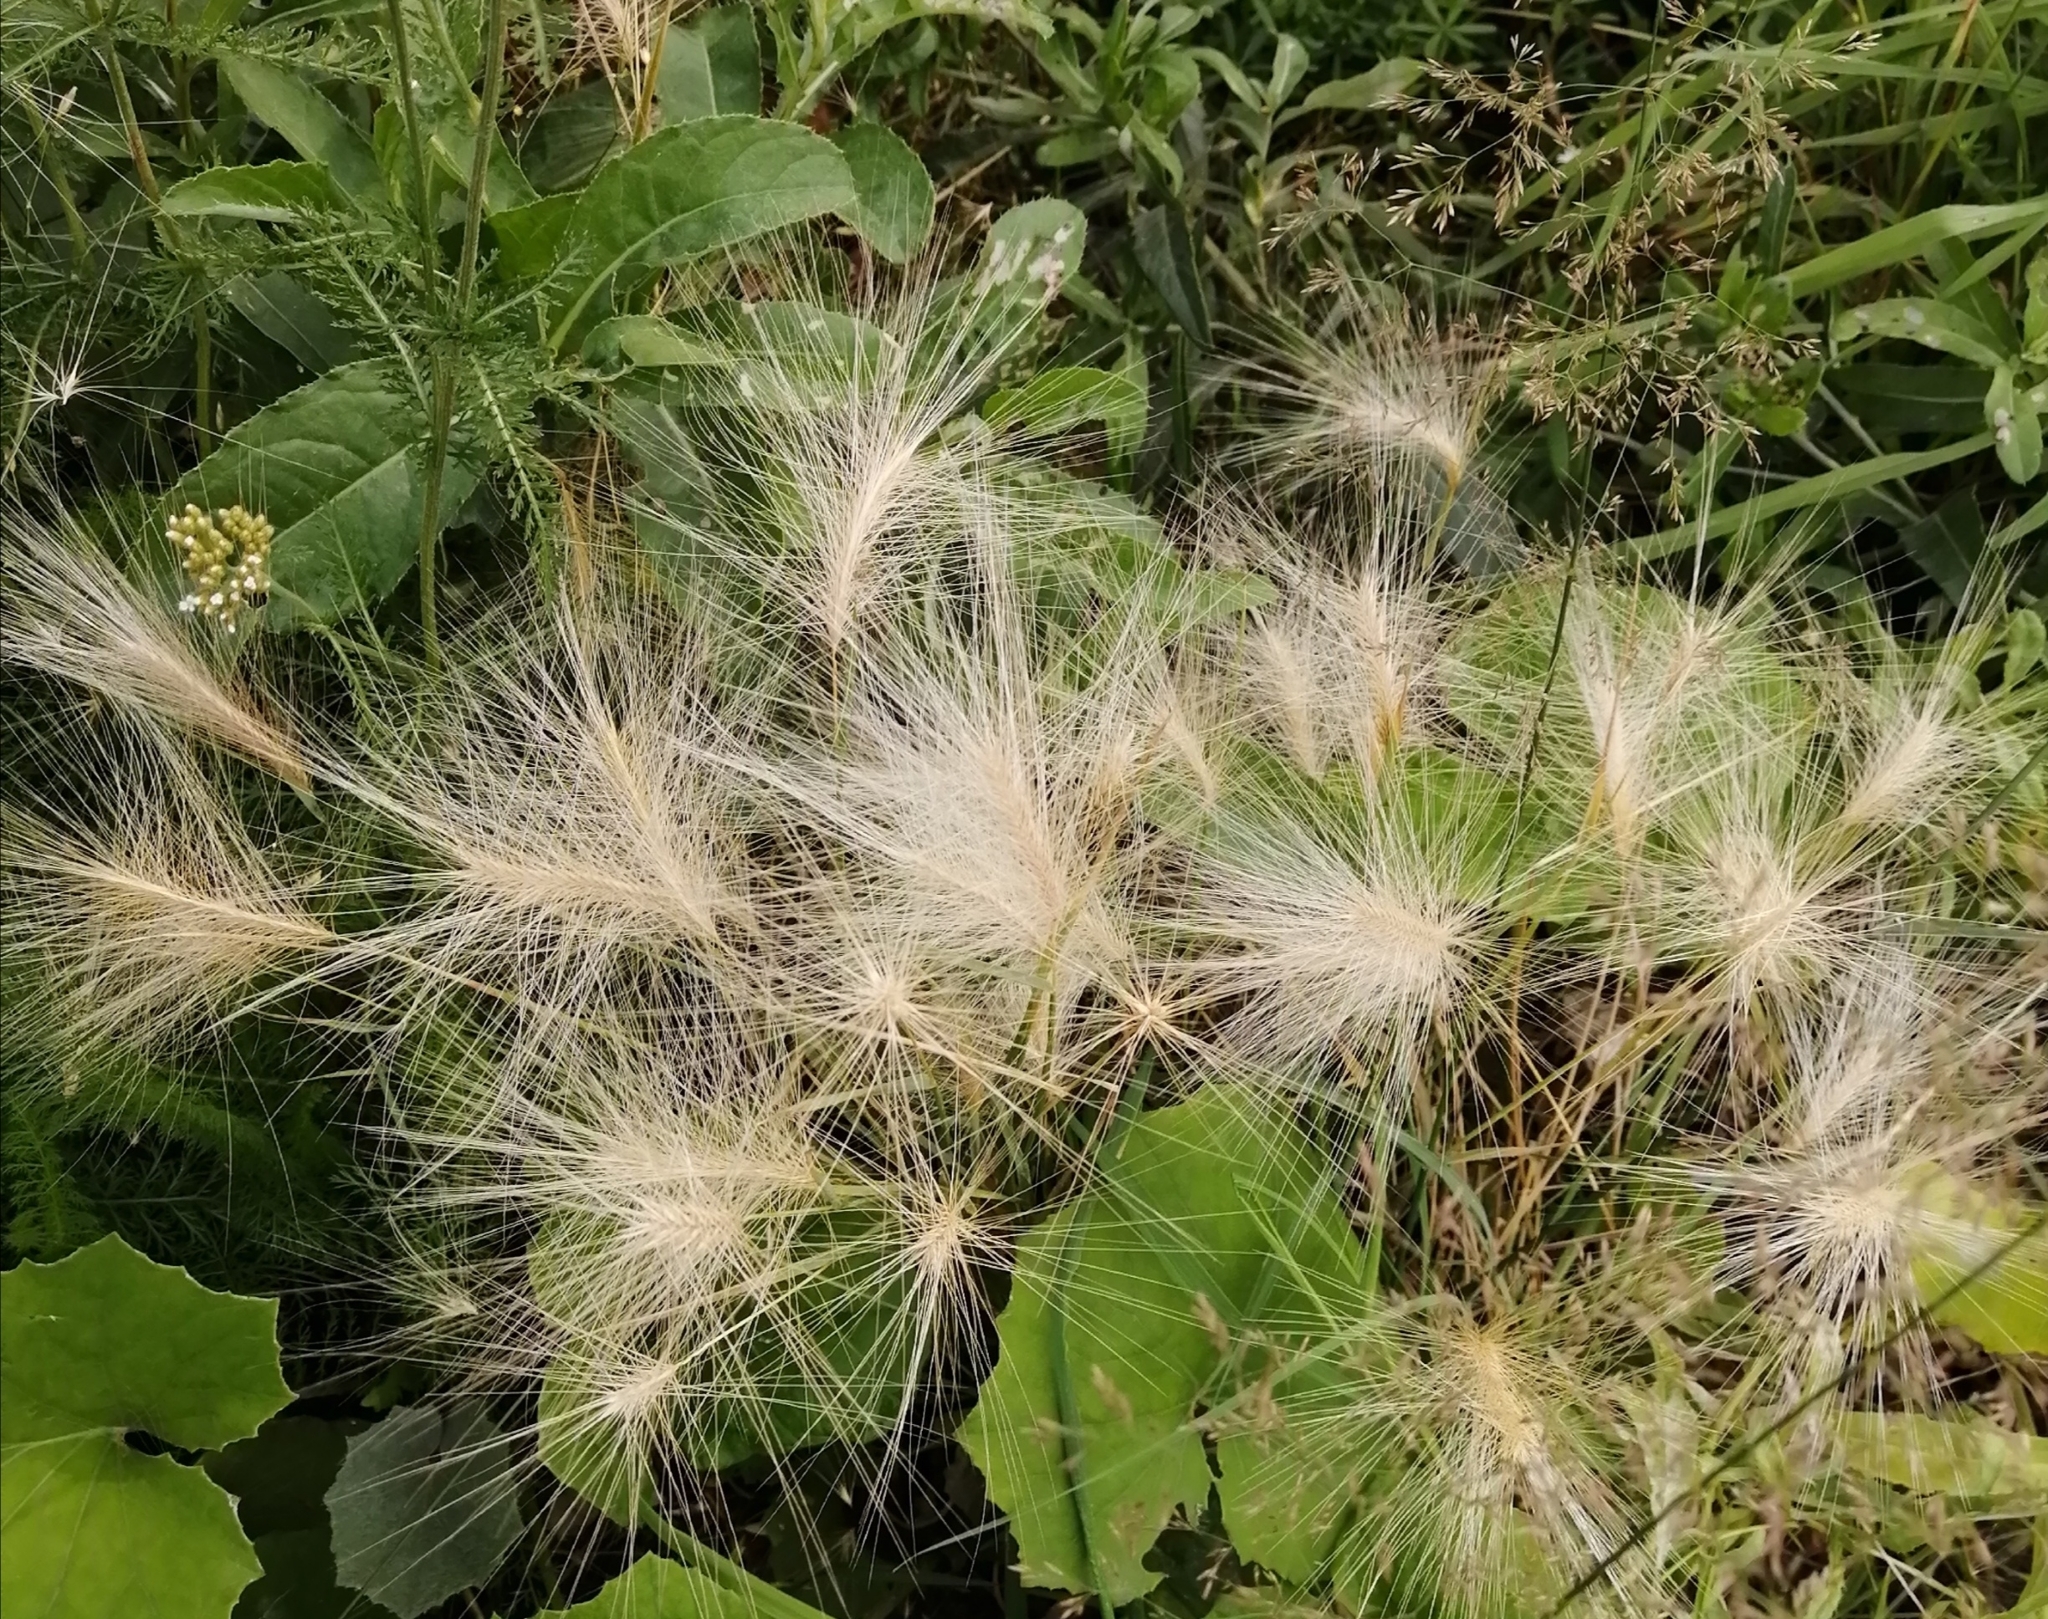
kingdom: Plantae
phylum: Tracheophyta
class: Liliopsida
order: Poales
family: Poaceae
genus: Hordeum
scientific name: Hordeum jubatum
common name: Foxtail barley
